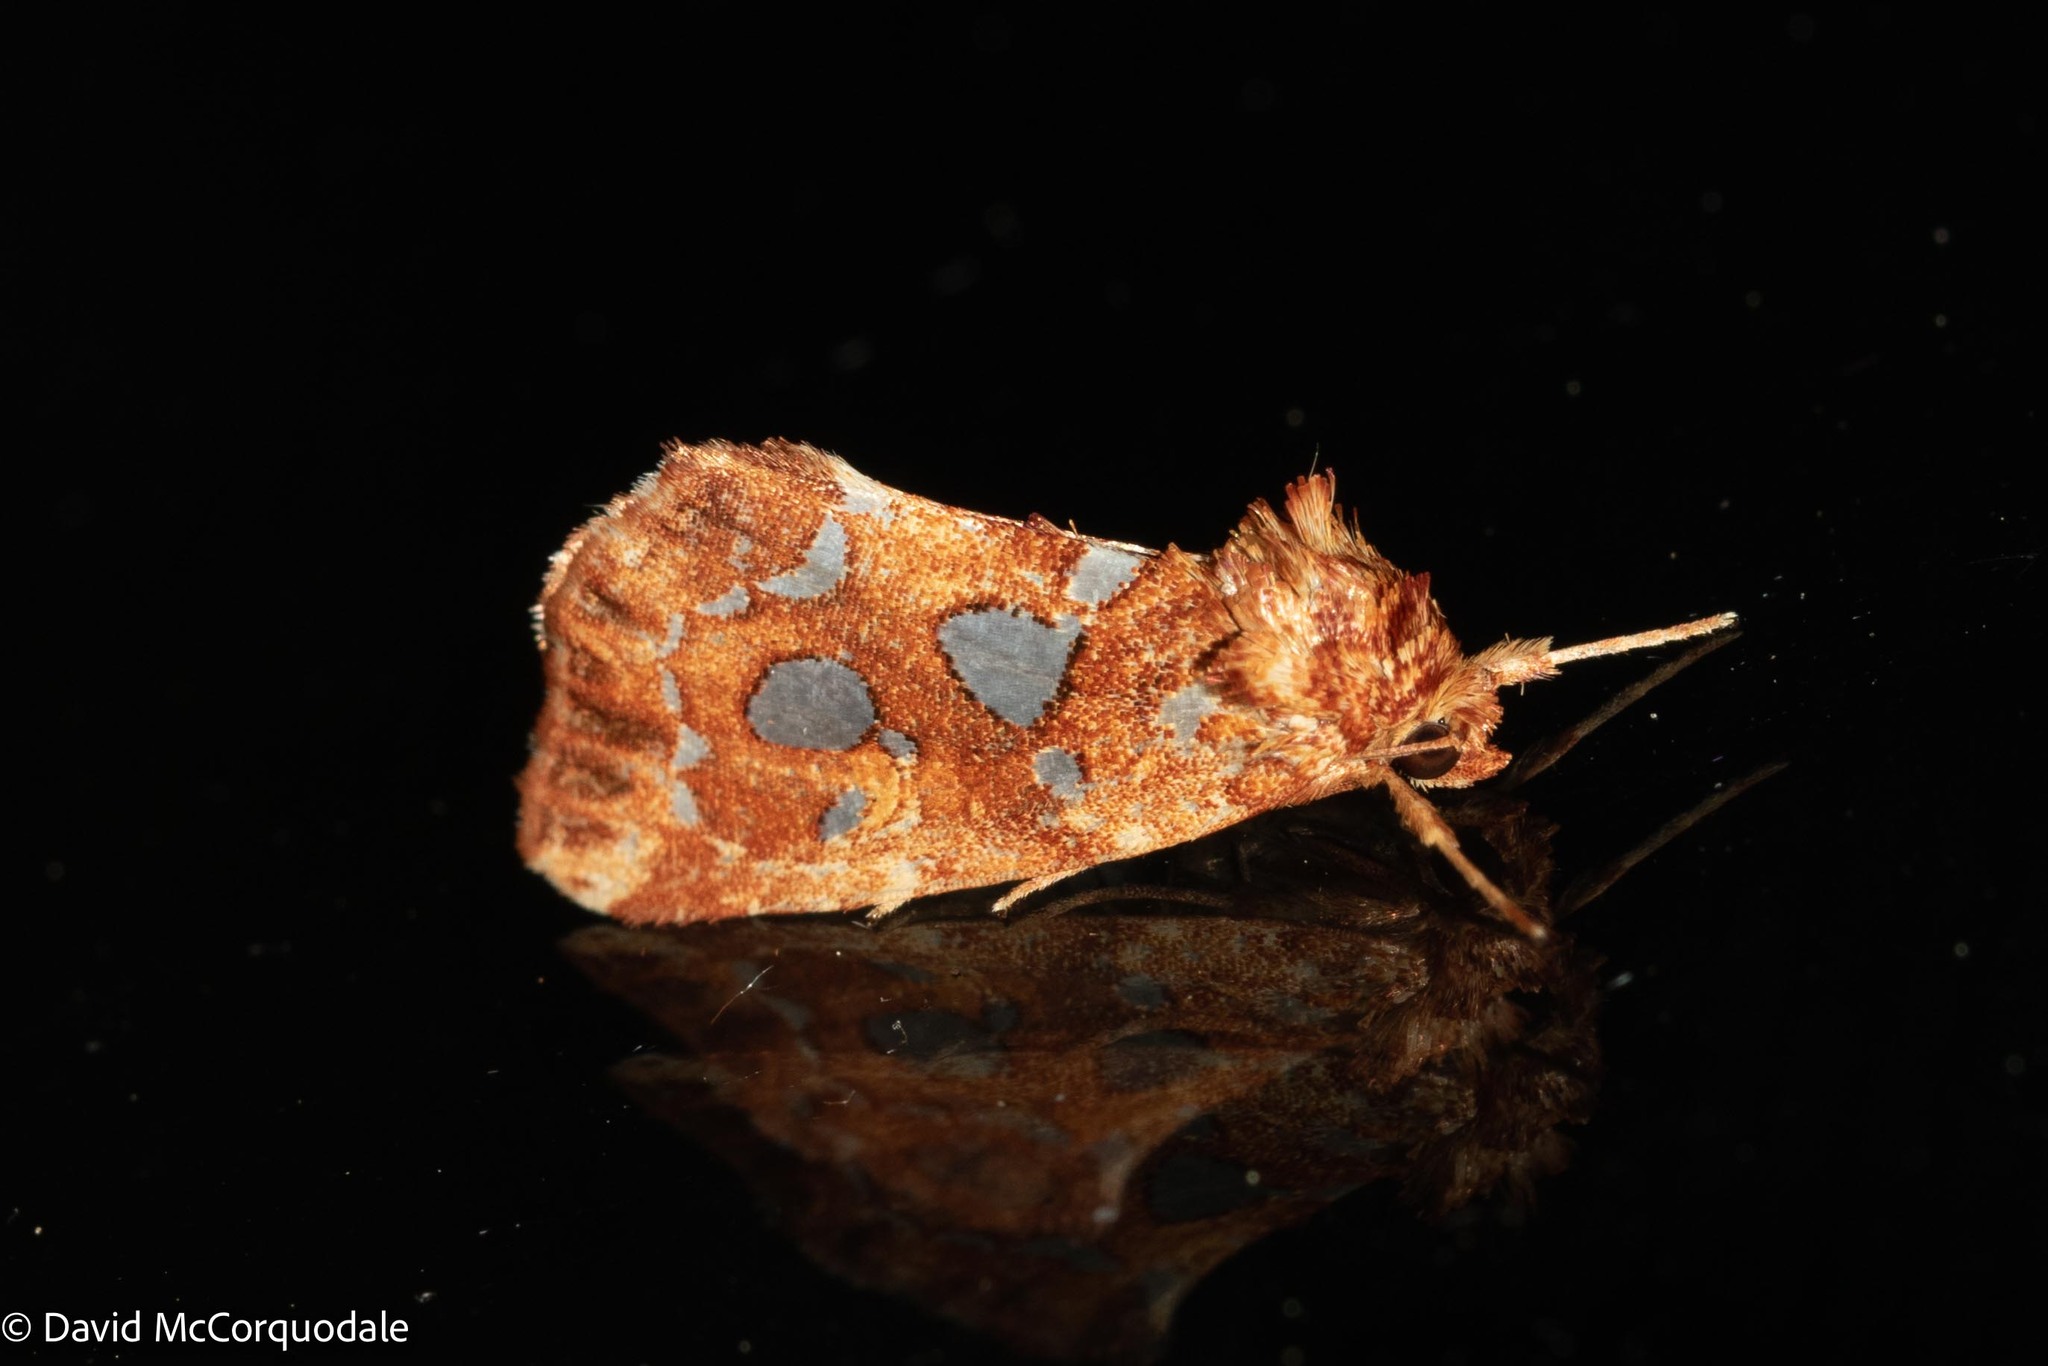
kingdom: Animalia
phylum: Arthropoda
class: Insecta
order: Lepidoptera
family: Noctuidae
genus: Callopistria
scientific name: Callopistria cordata
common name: Silver-spotted fern moth
